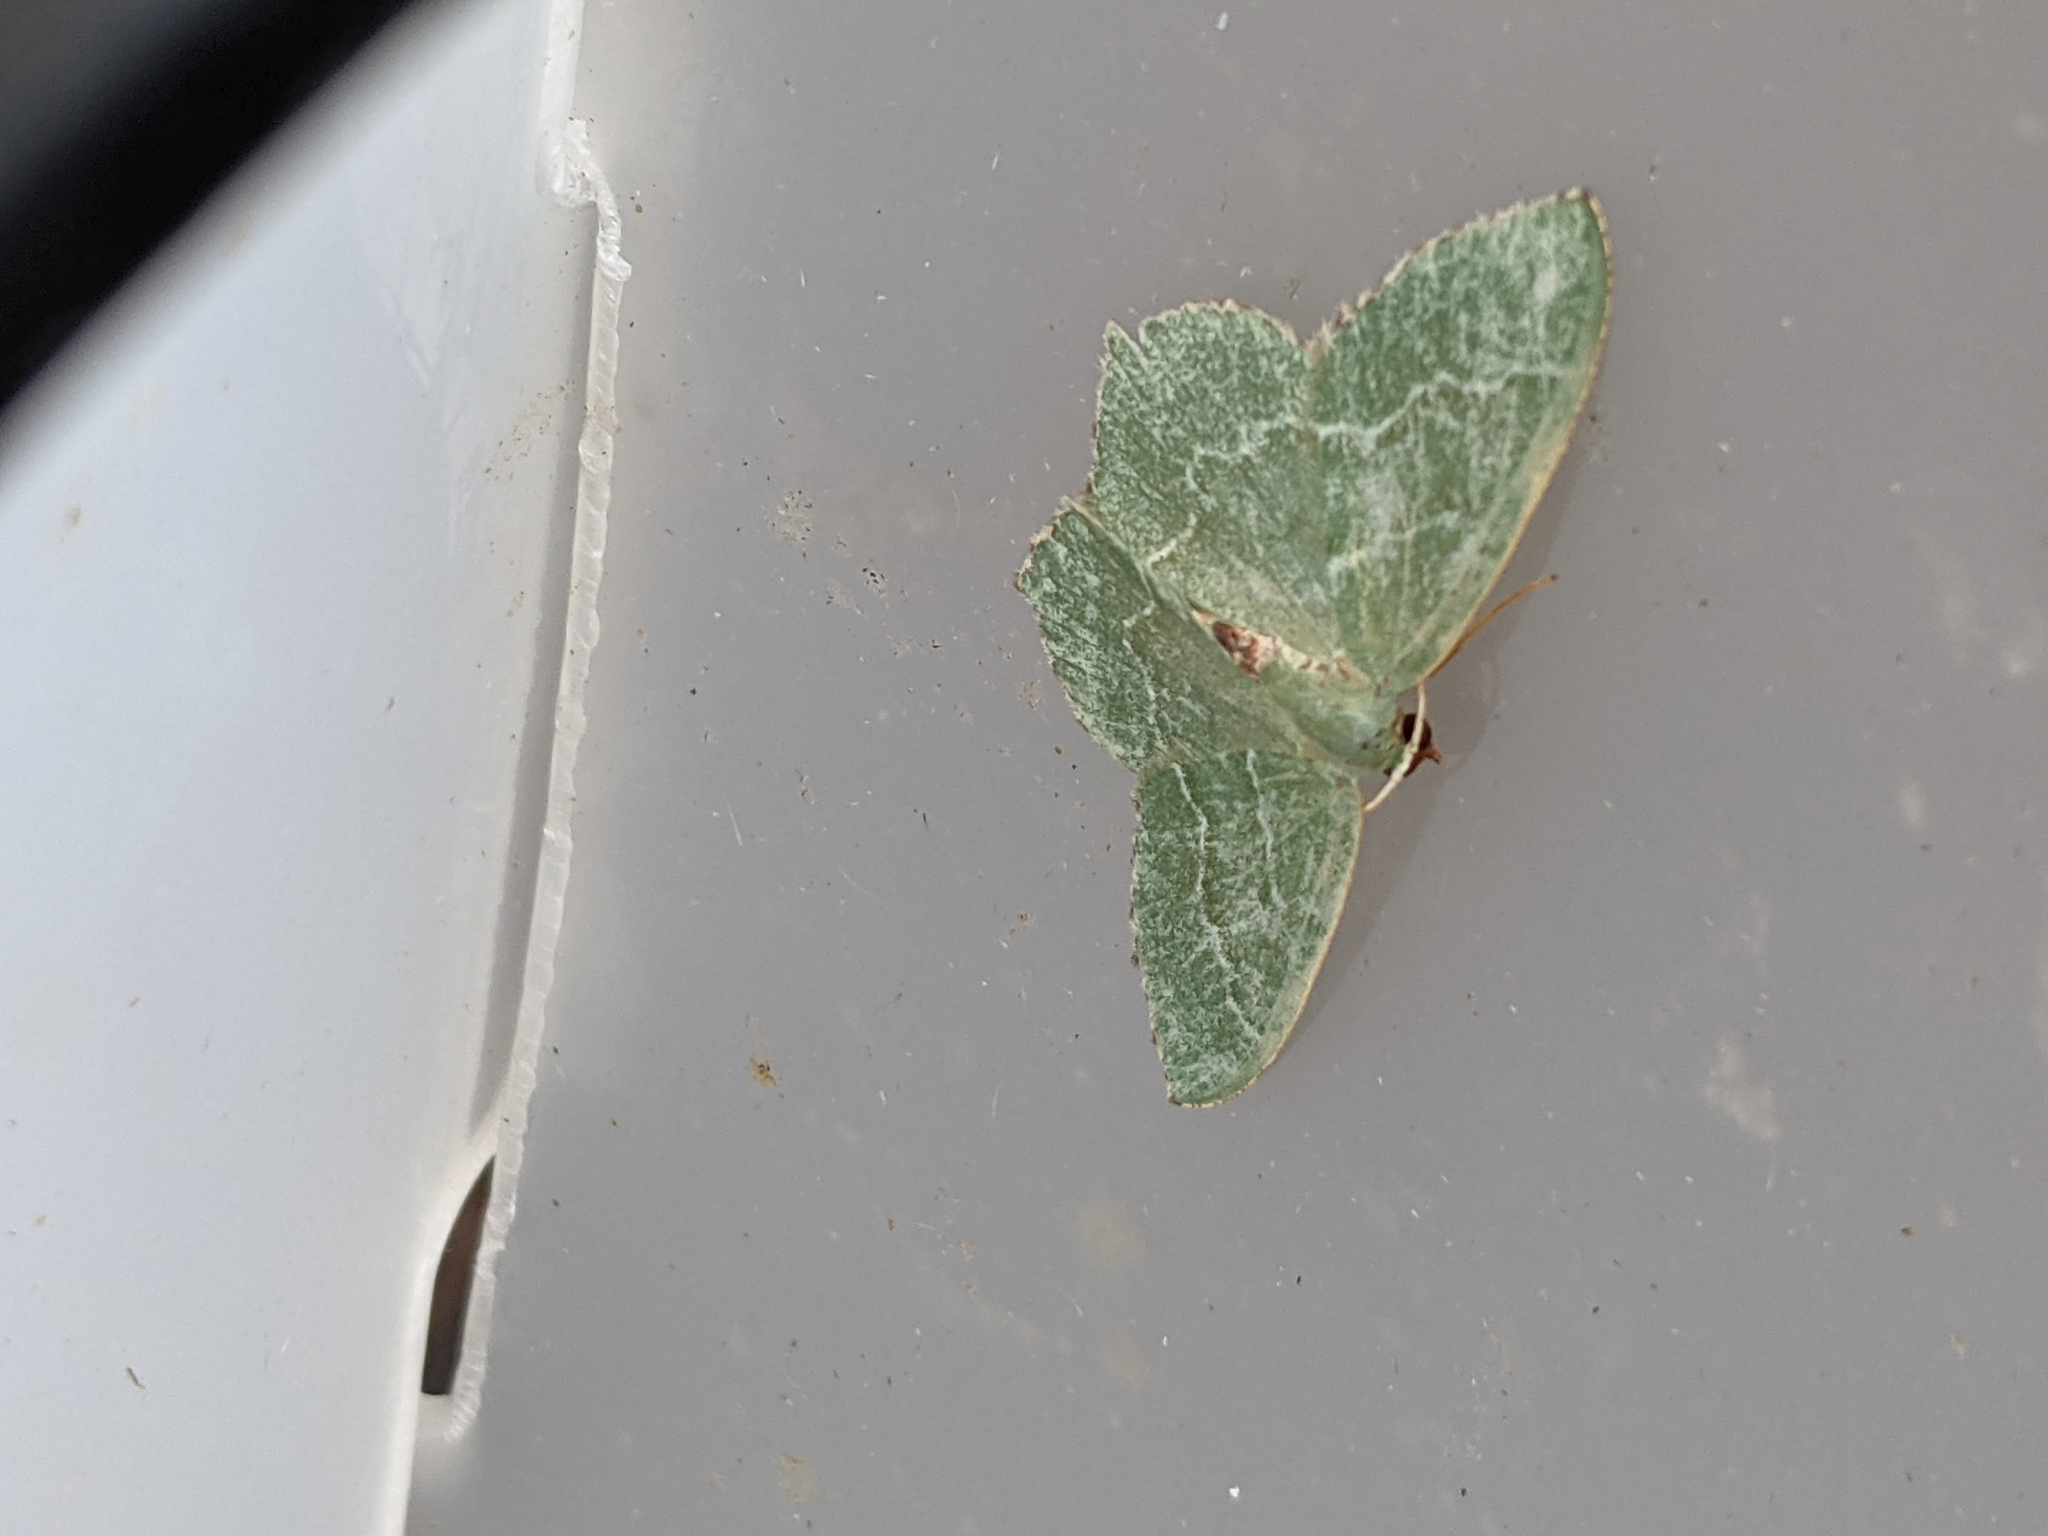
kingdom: Animalia
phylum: Arthropoda
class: Insecta
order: Lepidoptera
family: Geometridae
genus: Hemithea
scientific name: Hemithea aestivaria
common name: Common emerald
